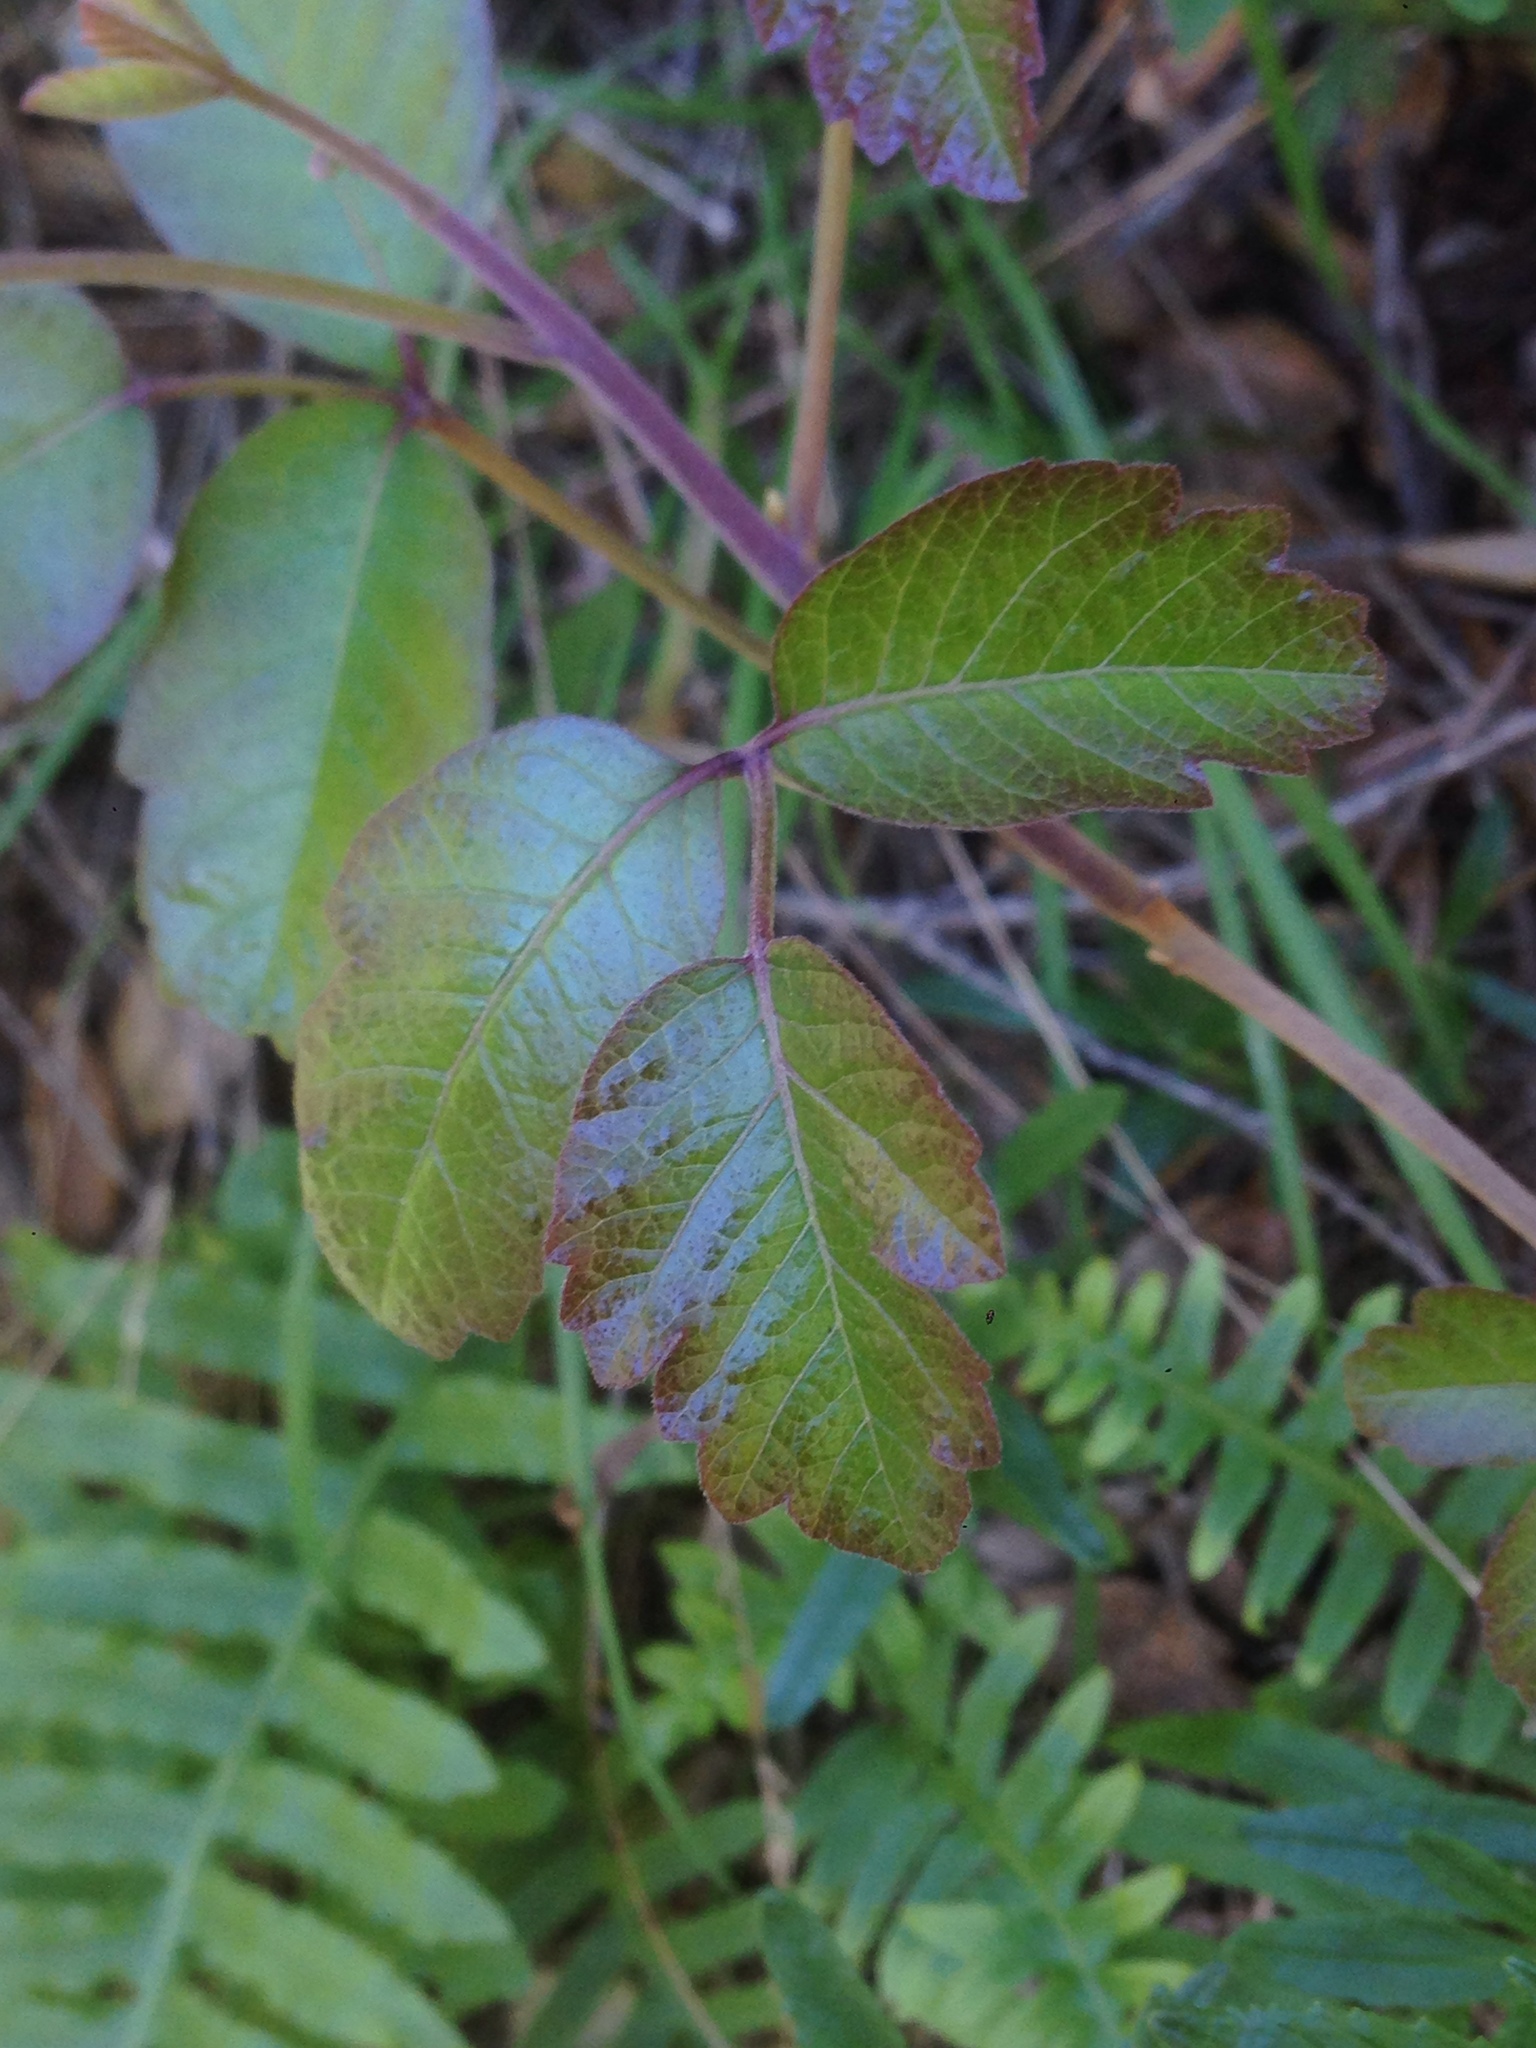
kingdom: Plantae
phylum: Tracheophyta
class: Magnoliopsida
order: Sapindales
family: Anacardiaceae
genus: Toxicodendron
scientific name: Toxicodendron diversilobum
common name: Pacific poison-oak
